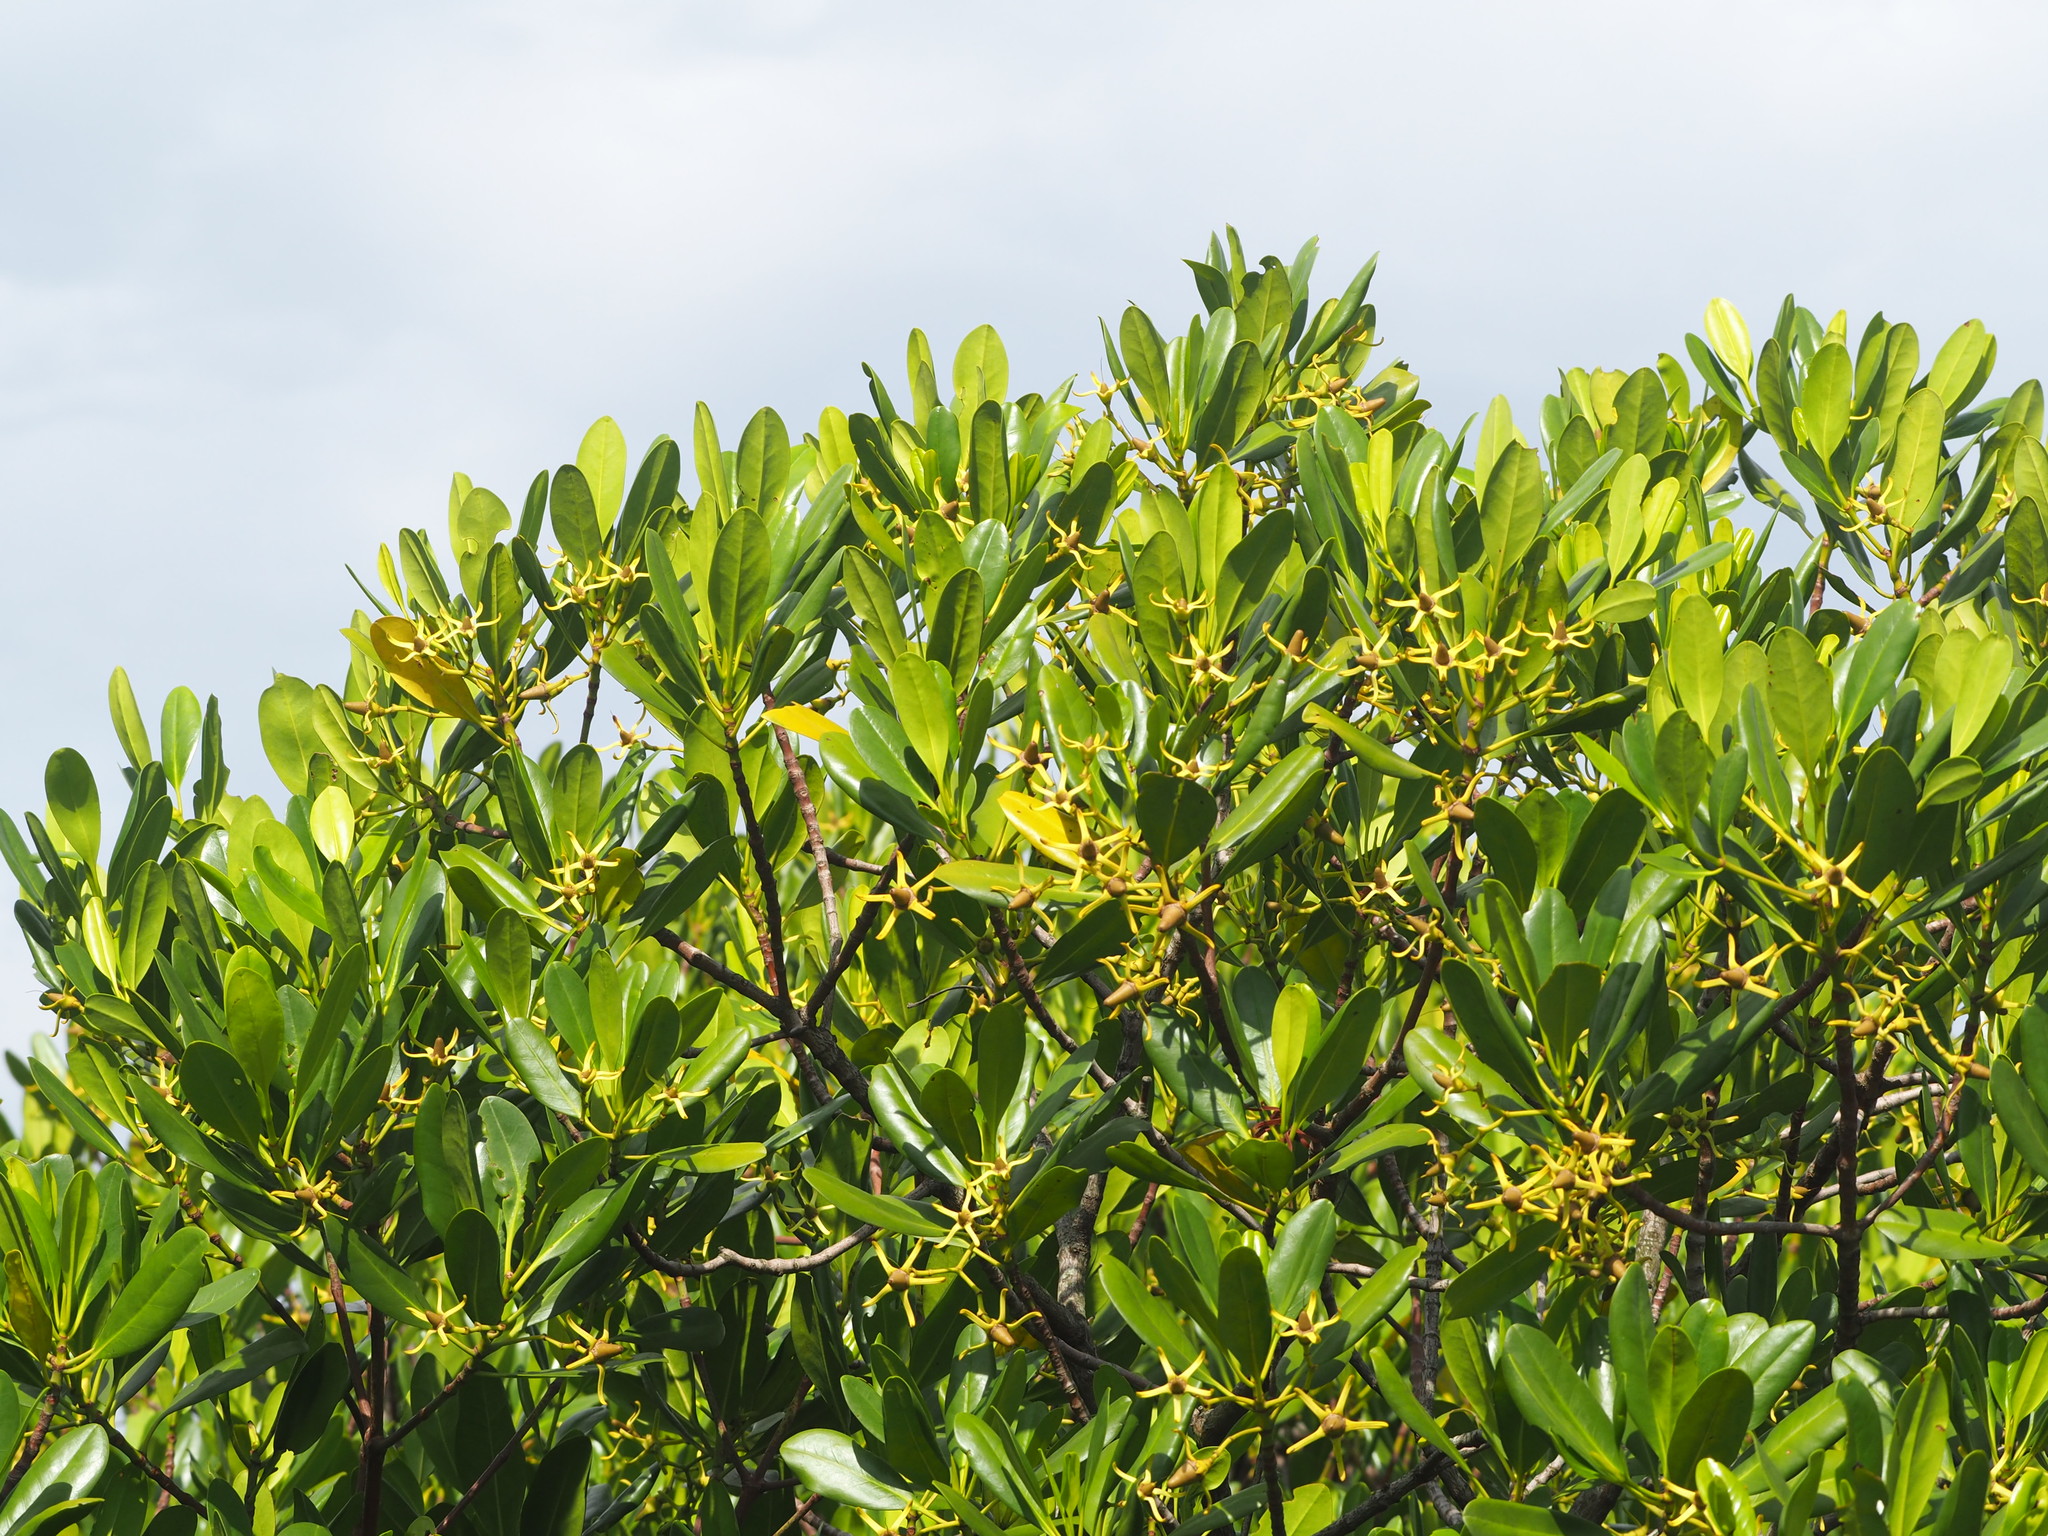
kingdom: Plantae
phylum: Tracheophyta
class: Magnoliopsida
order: Malpighiales
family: Rhizophoraceae
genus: Kandelia
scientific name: Kandelia obovata
